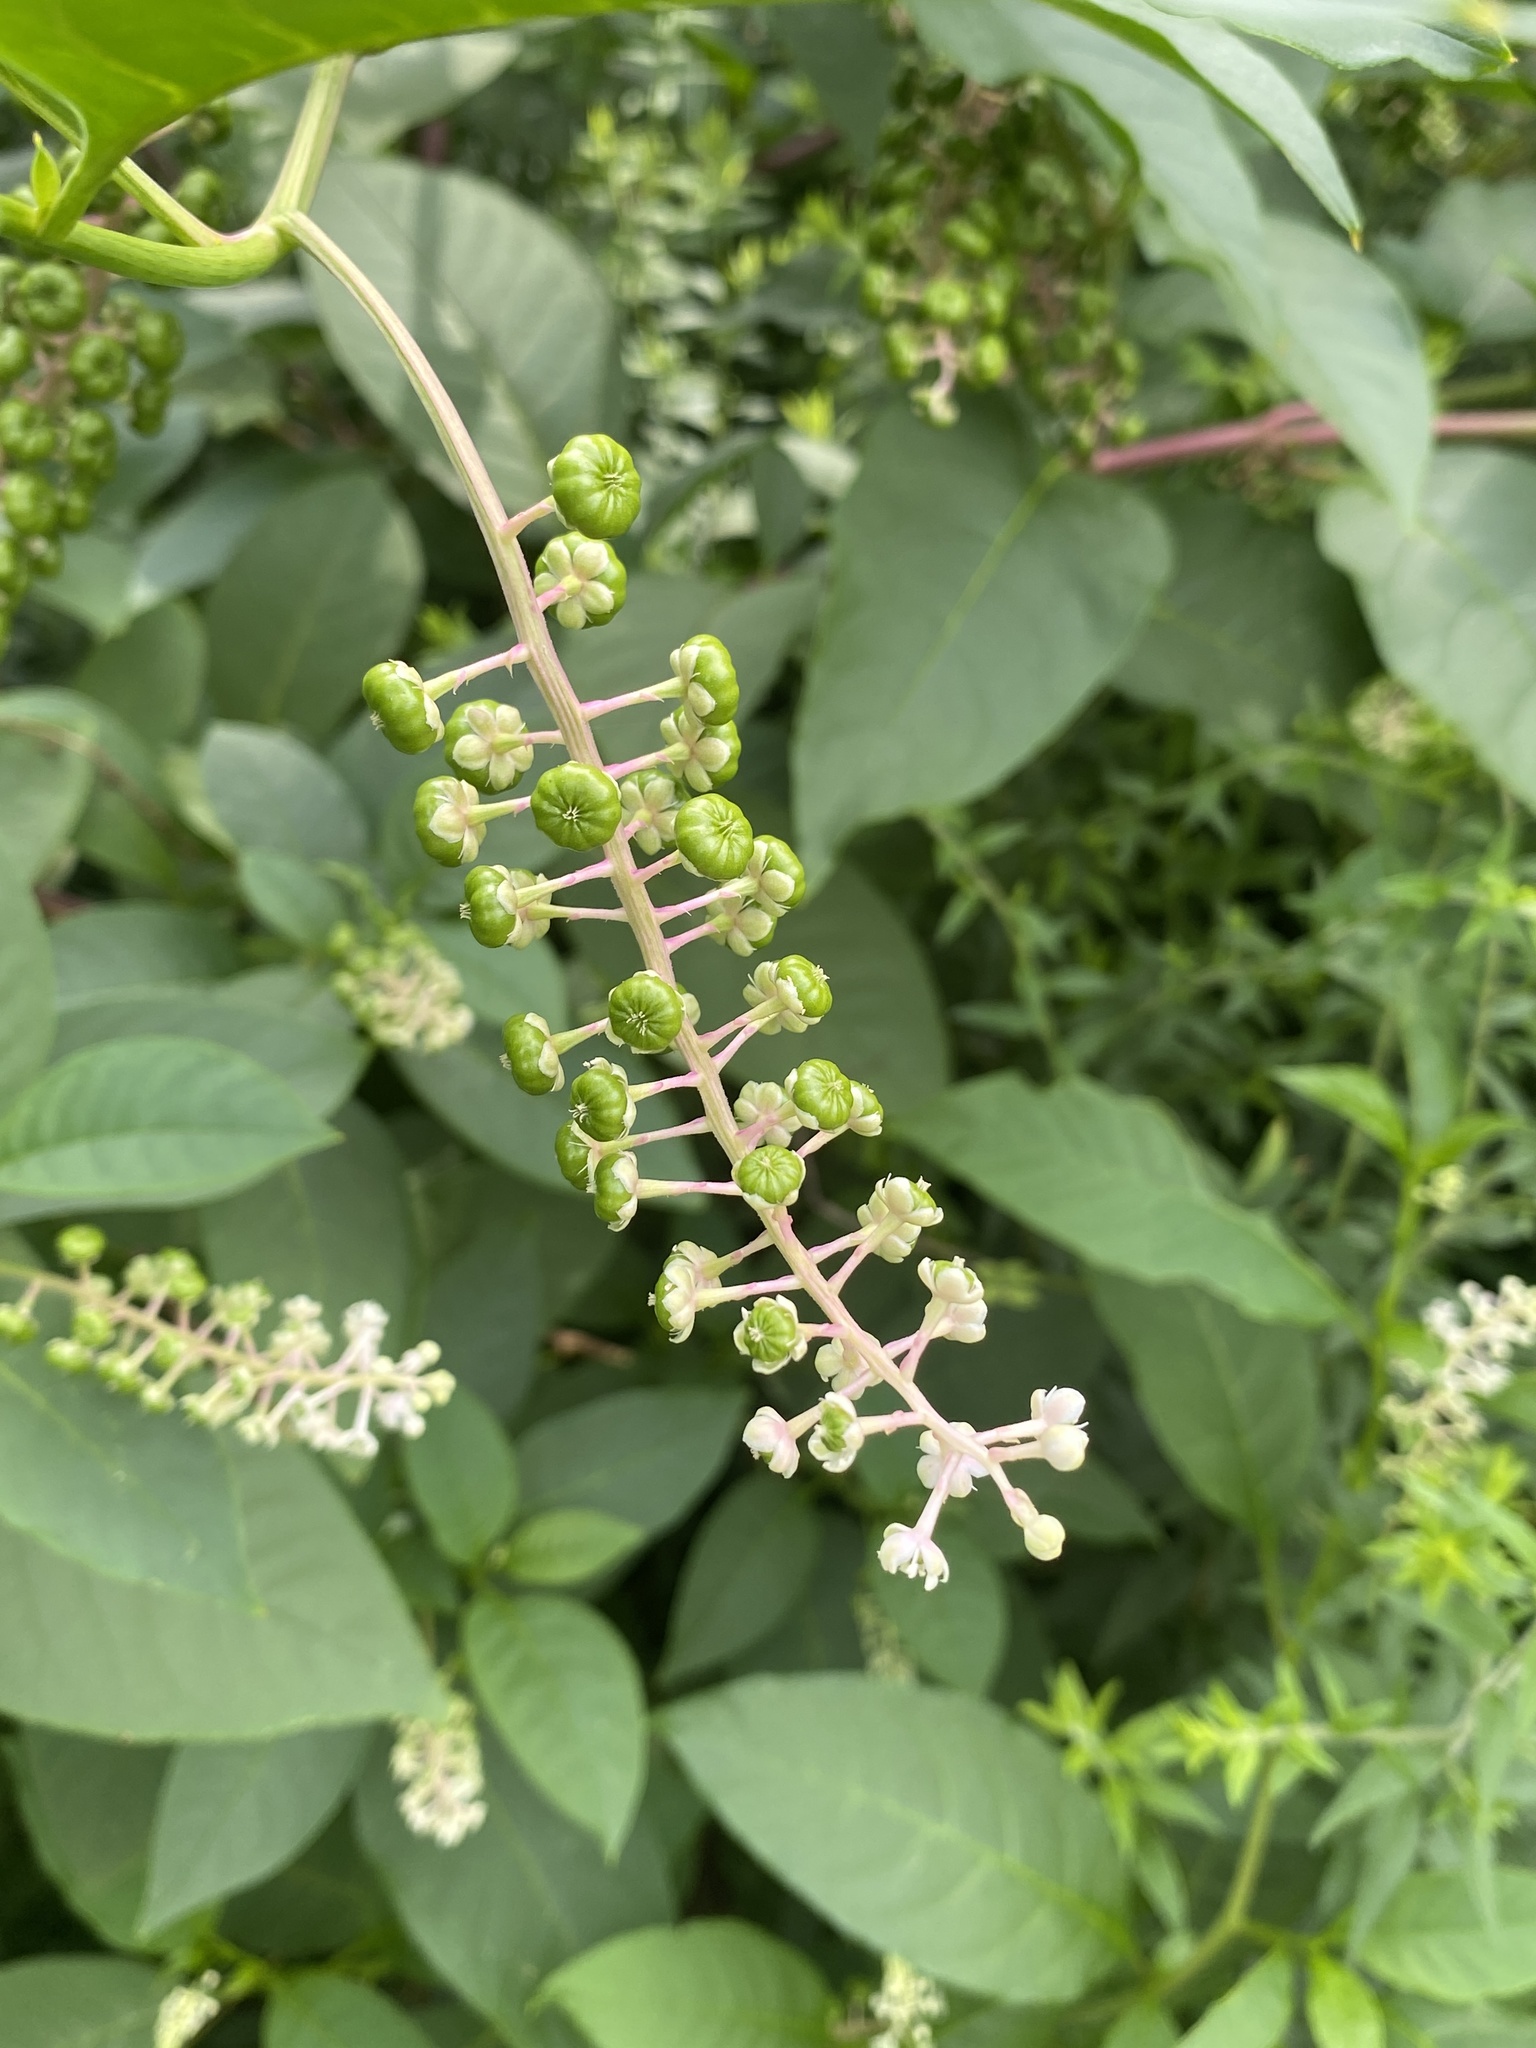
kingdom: Plantae
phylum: Tracheophyta
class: Magnoliopsida
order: Caryophyllales
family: Phytolaccaceae
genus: Phytolacca
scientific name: Phytolacca americana
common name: American pokeweed
